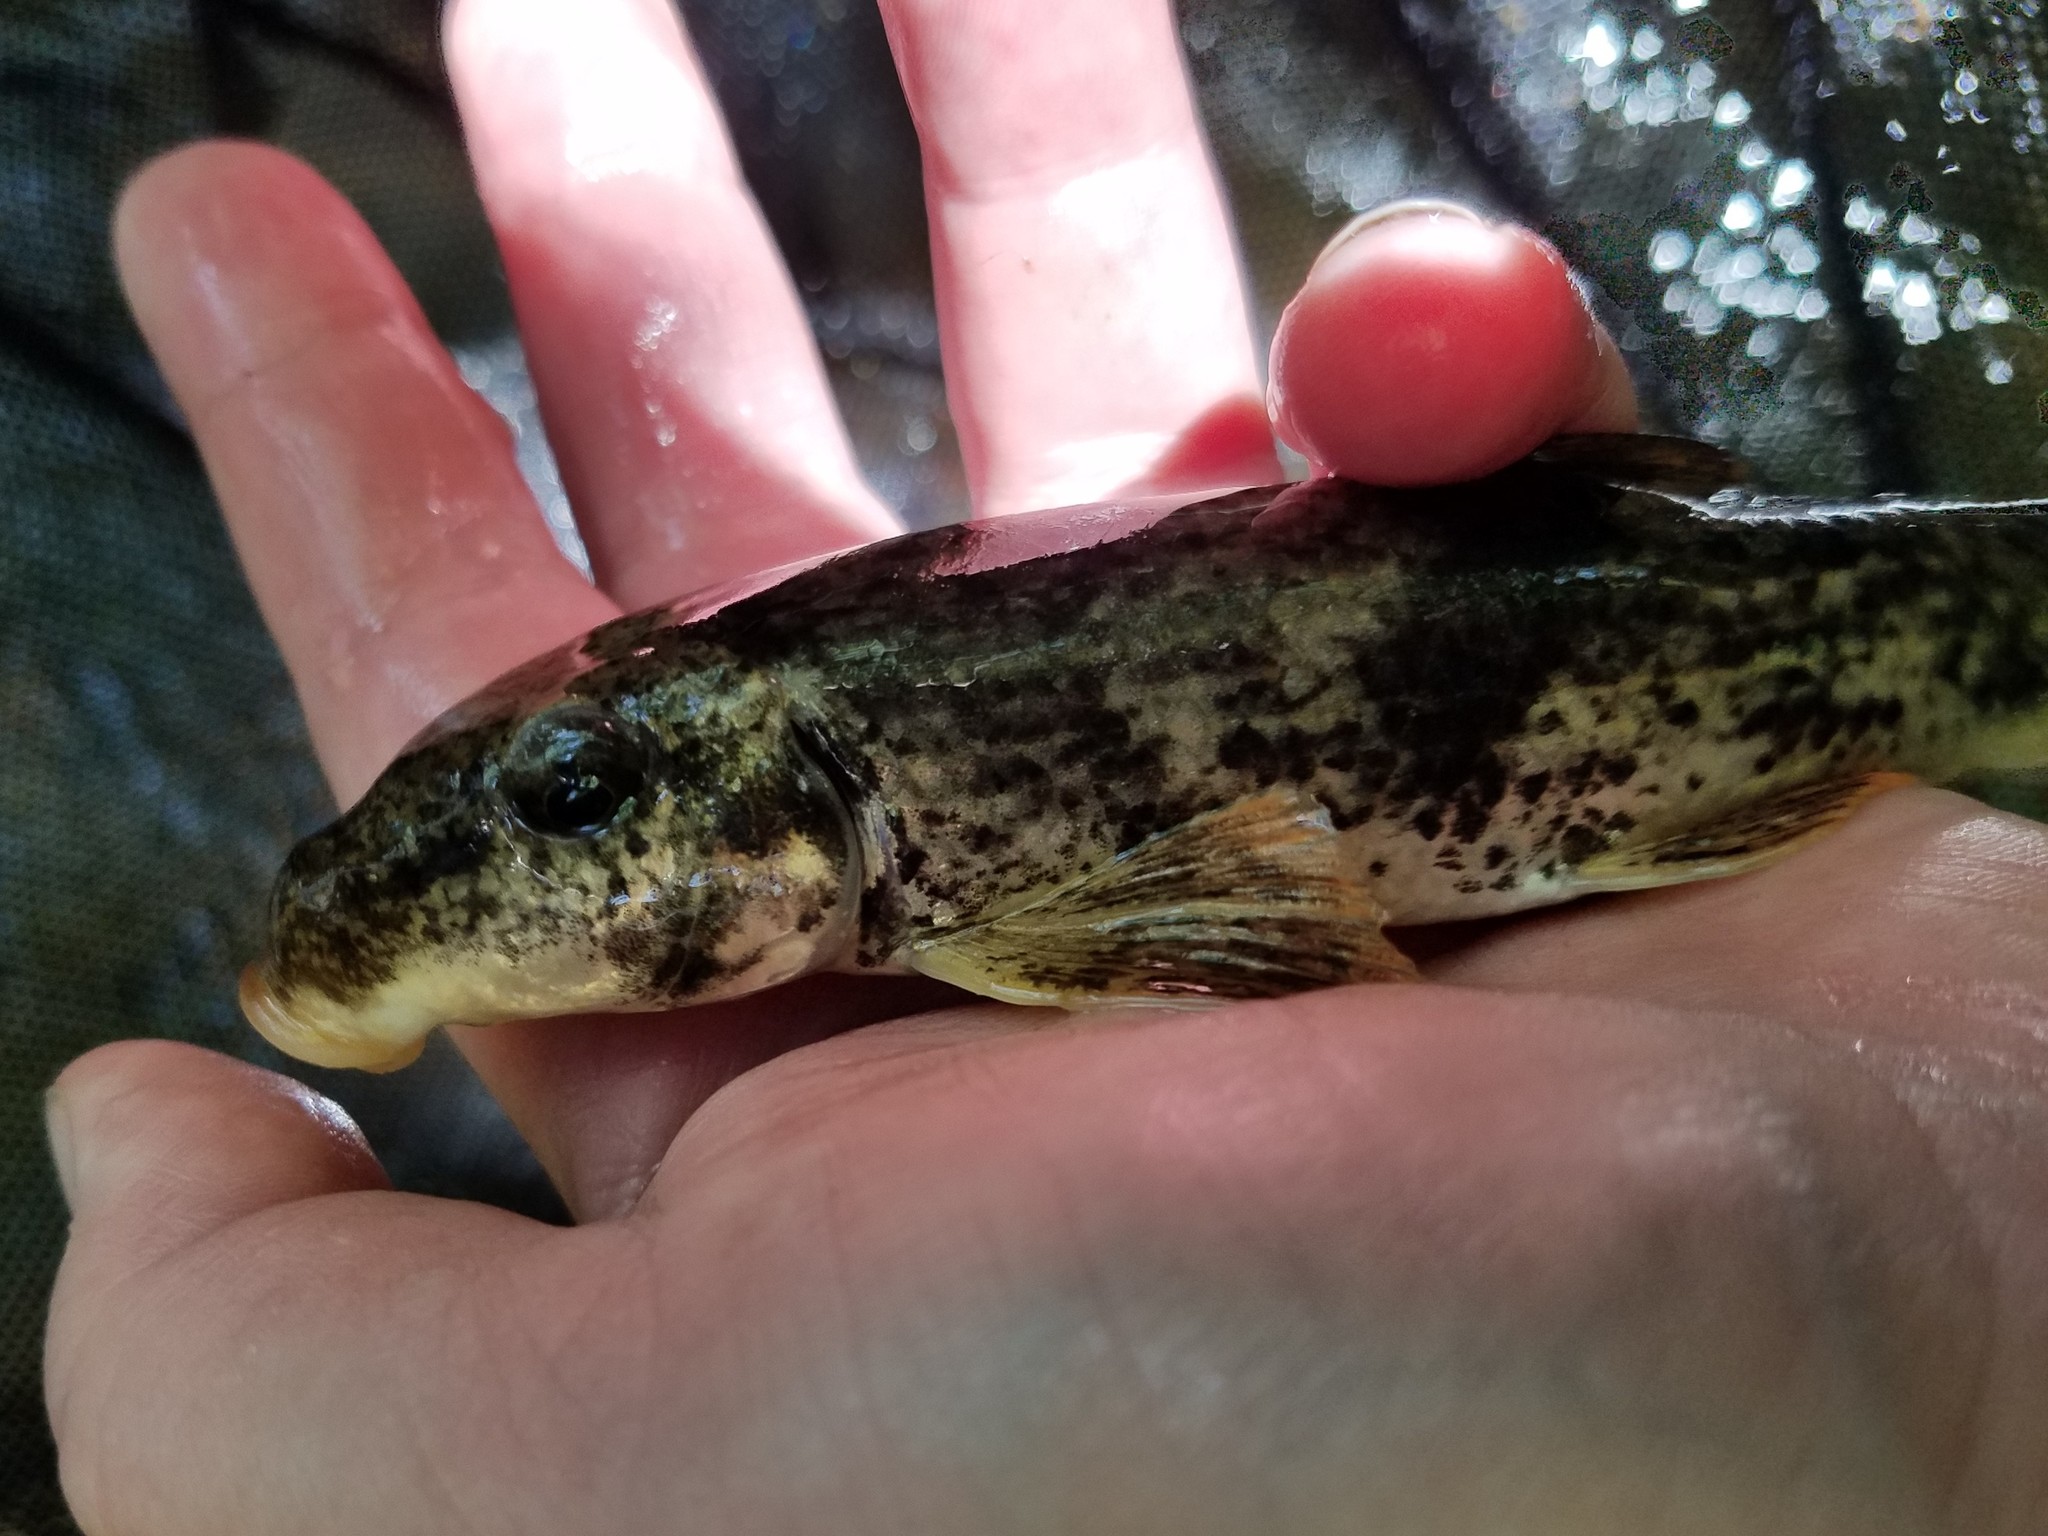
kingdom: Animalia
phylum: Chordata
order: Cypriniformes
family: Catostomidae
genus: Hypentelium
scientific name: Hypentelium etowanum
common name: Alabama hog sucker
